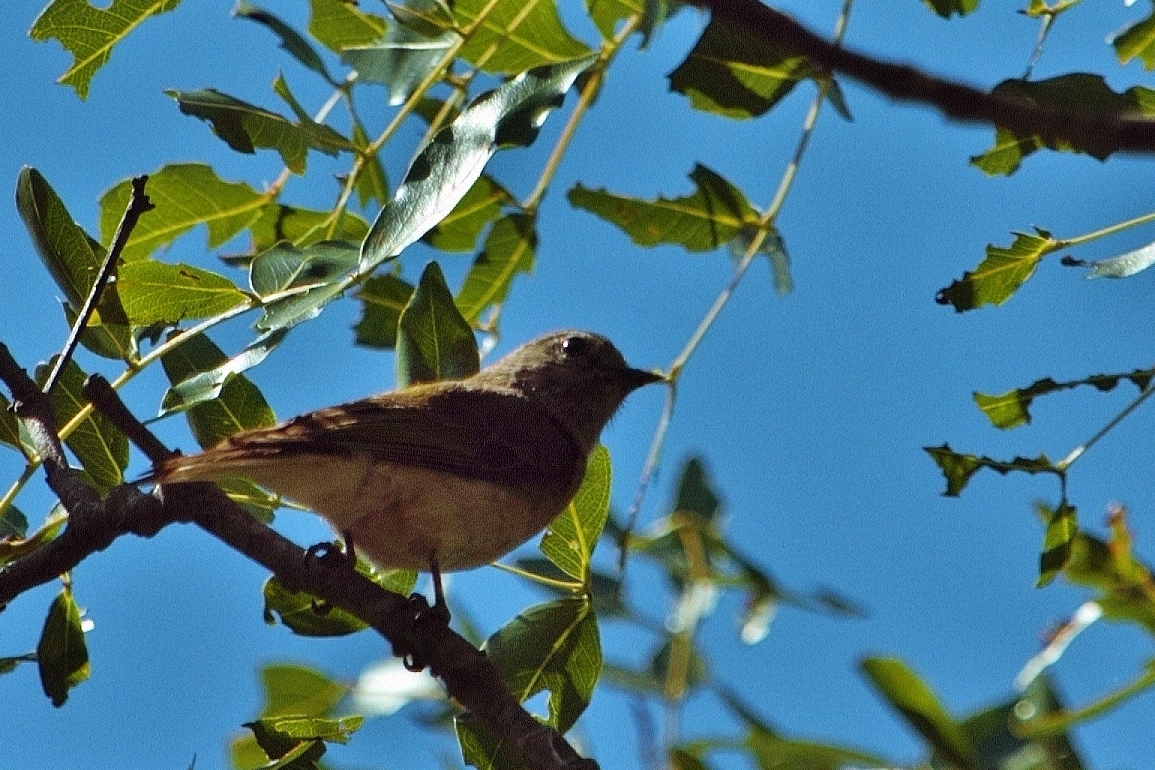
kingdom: Animalia
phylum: Chordata
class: Aves
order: Piciformes
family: Indicatoridae
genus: Prodotiscus
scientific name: Prodotiscus zambesiae
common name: Green-backed honeybird
